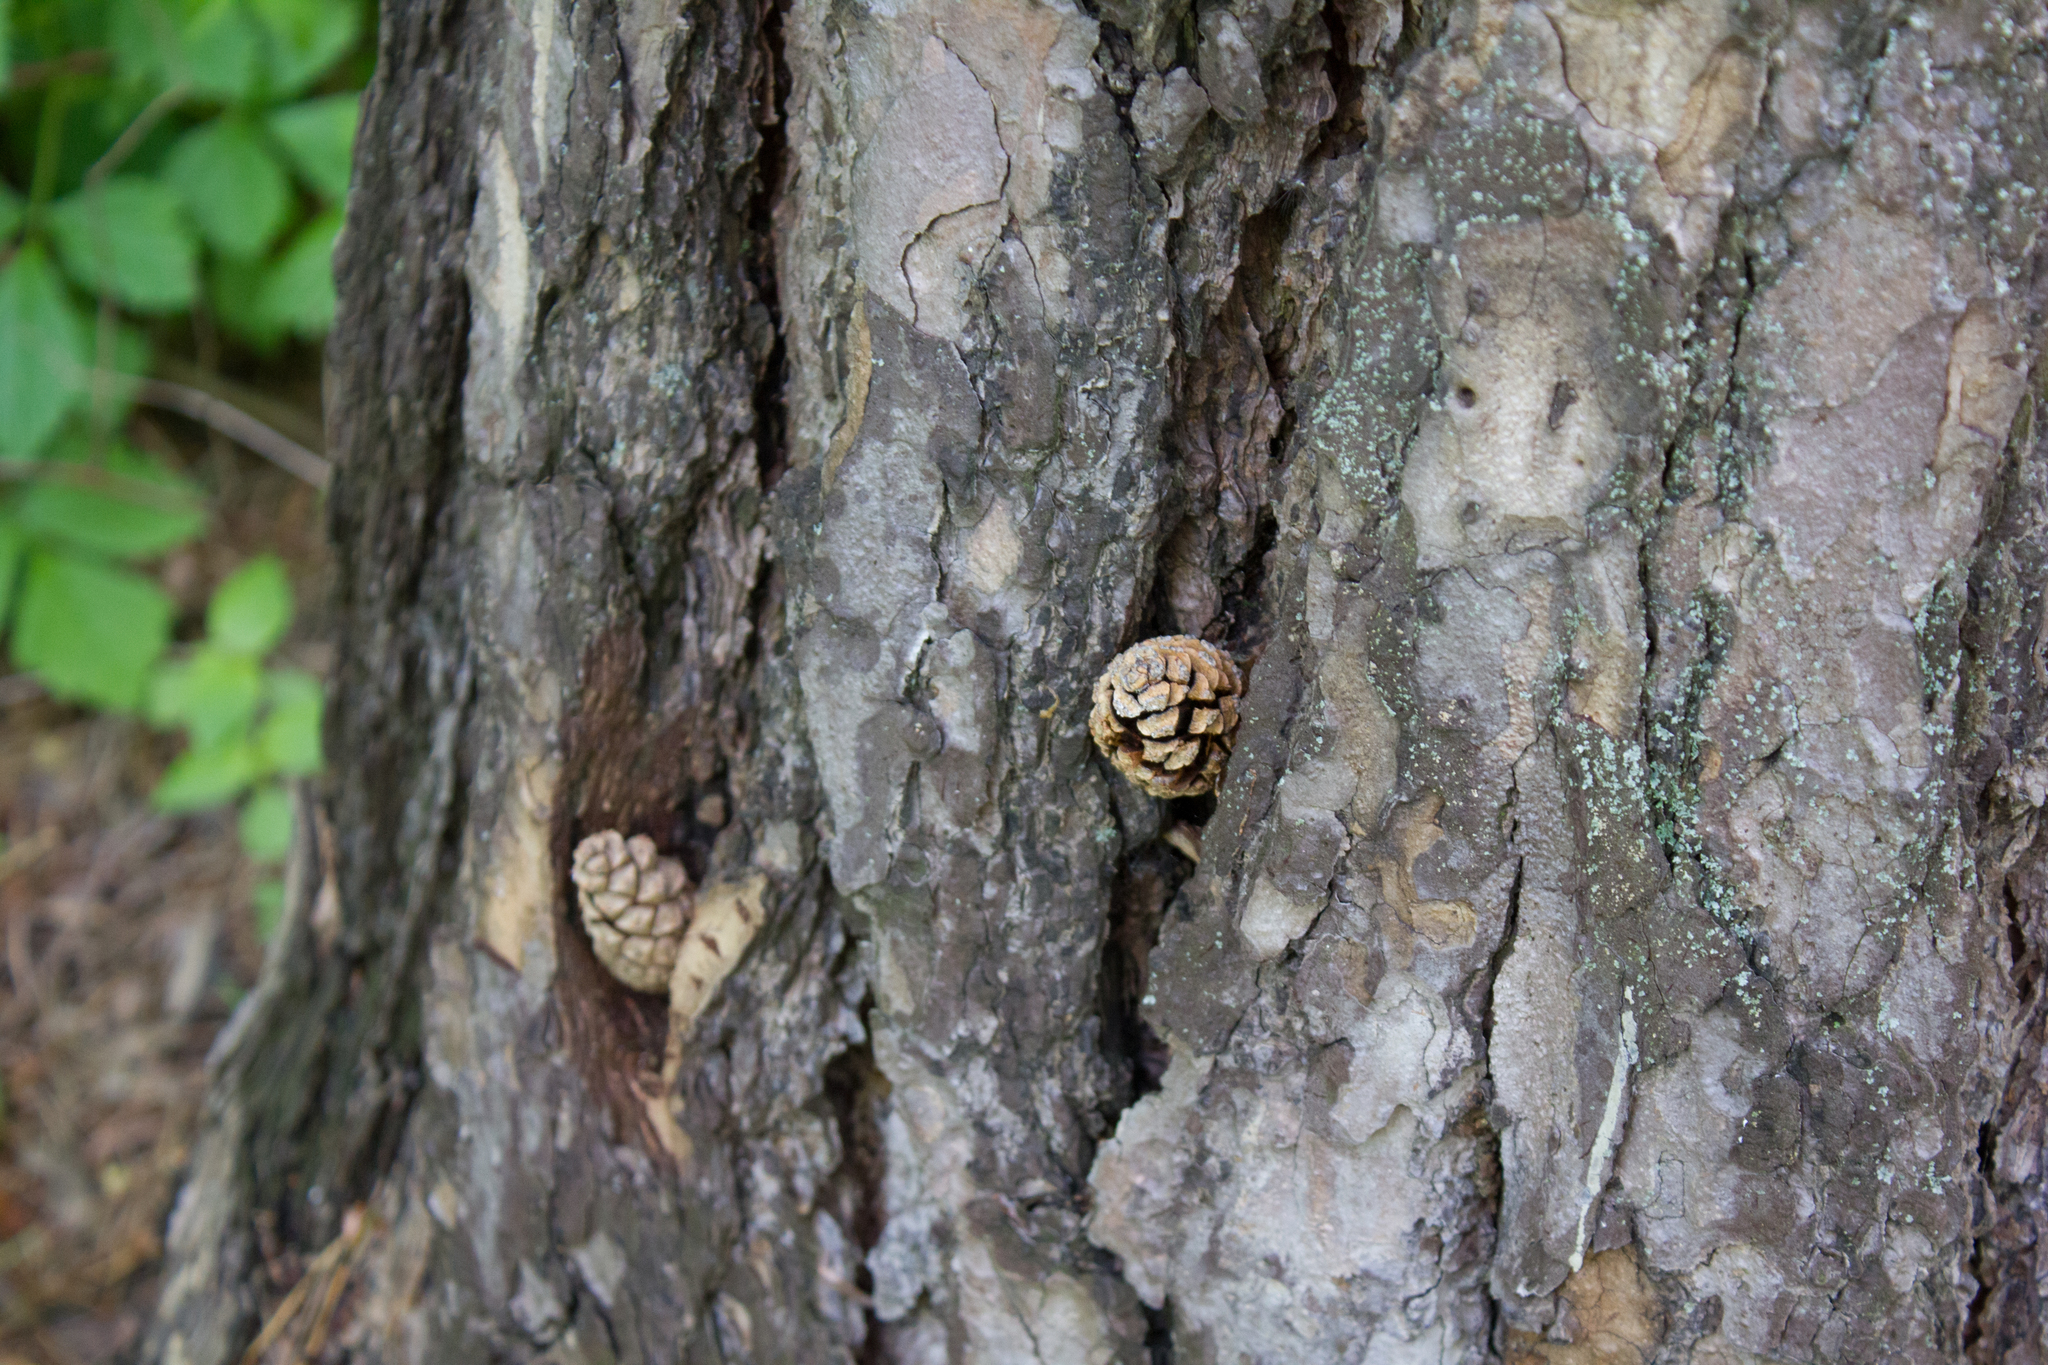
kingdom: Plantae
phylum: Tracheophyta
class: Pinopsida
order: Pinales
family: Pinaceae
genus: Pinus
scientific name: Pinus sylvestris
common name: Scots pine
